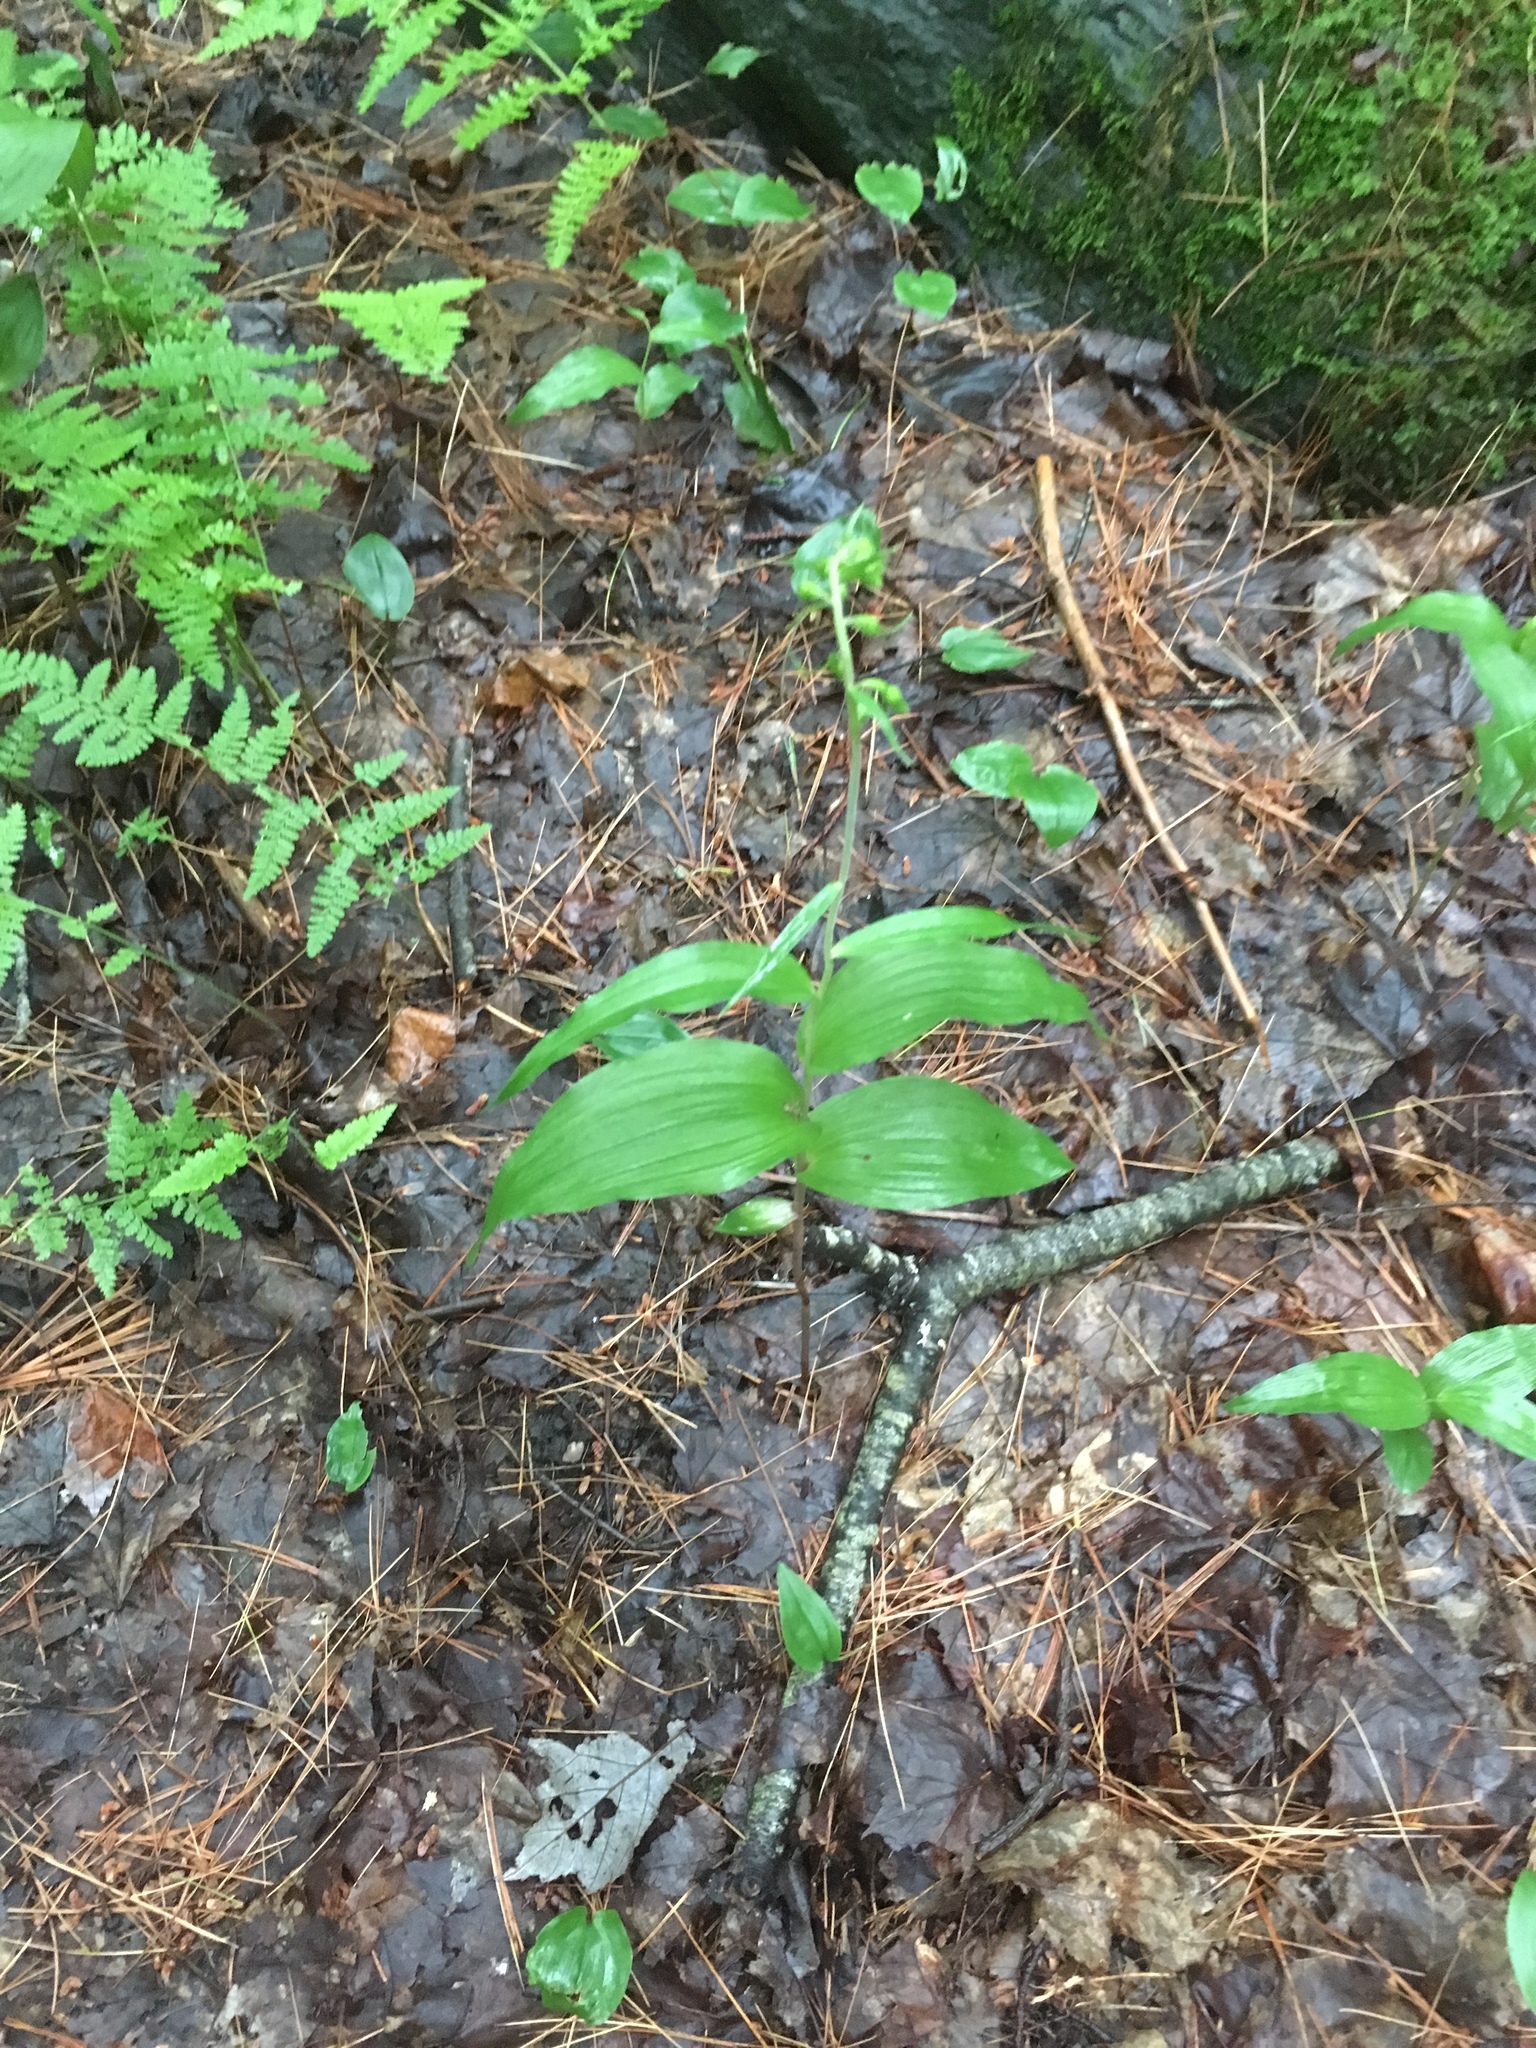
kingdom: Plantae
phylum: Tracheophyta
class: Liliopsida
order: Asparagales
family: Orchidaceae
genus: Epipactis
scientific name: Epipactis helleborine
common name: Broad-leaved helleborine
